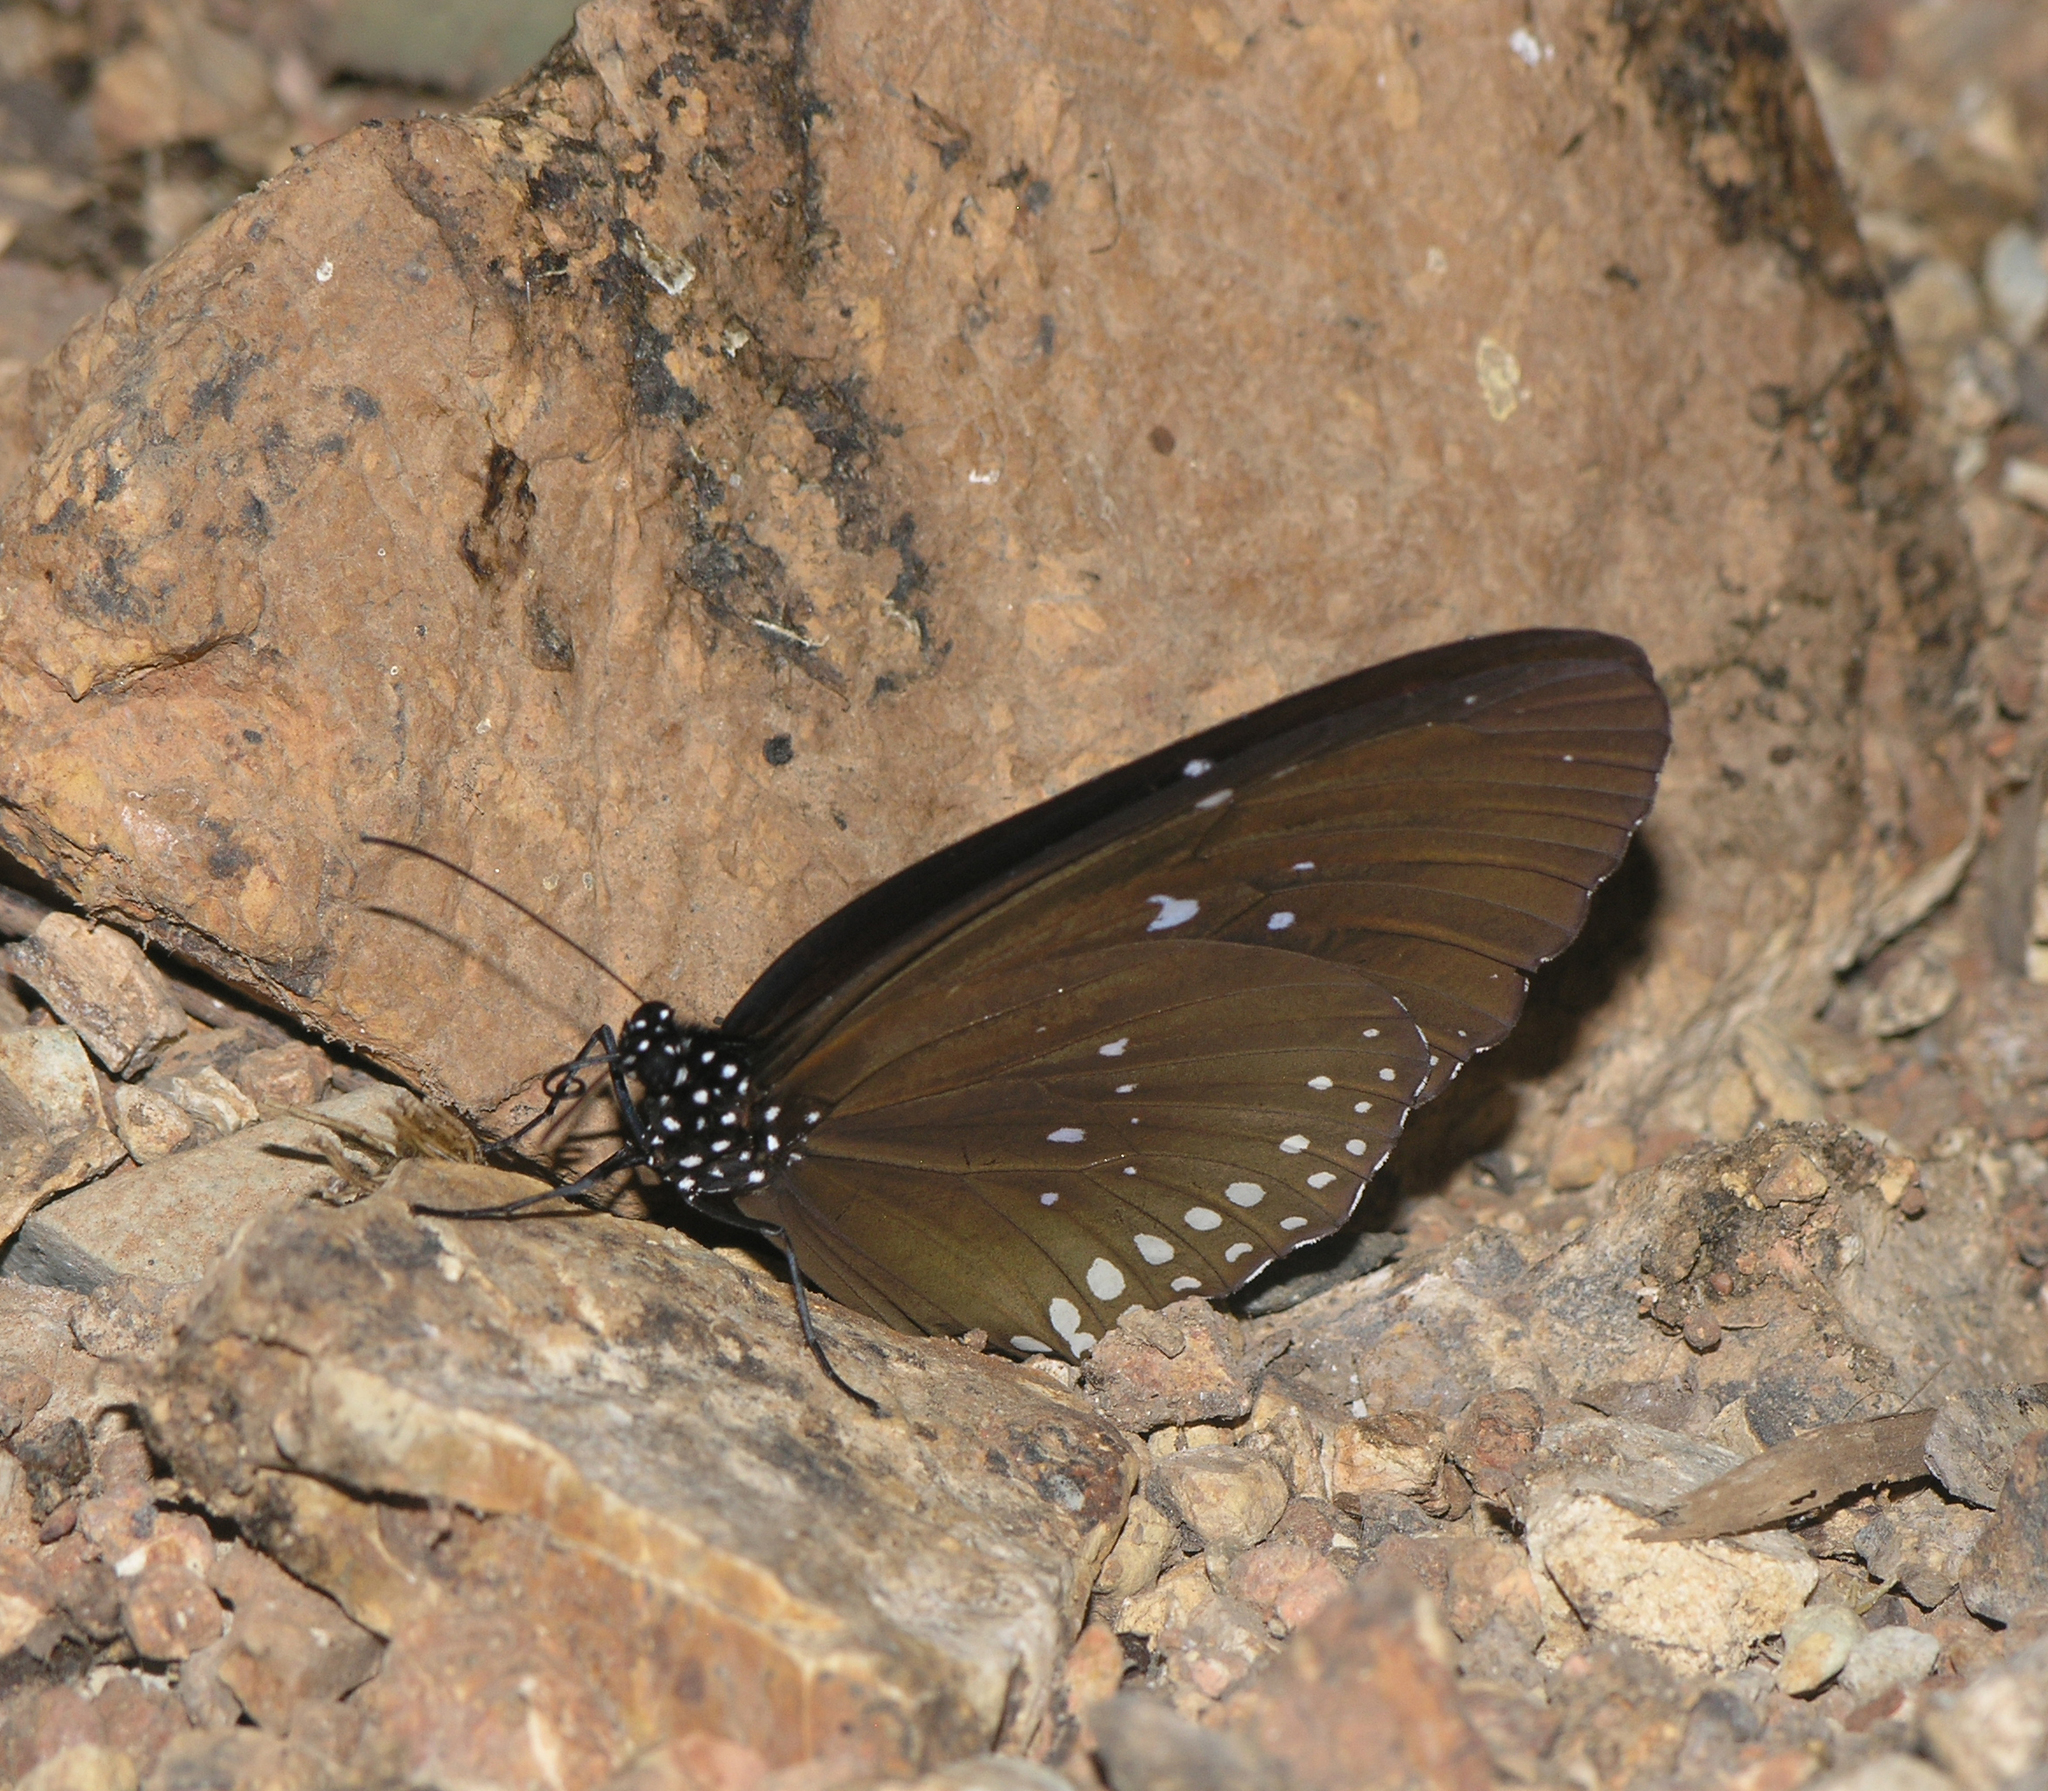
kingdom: Animalia
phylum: Arthropoda
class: Insecta
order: Lepidoptera
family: Nymphalidae
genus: Euploea
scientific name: Euploea modesta
